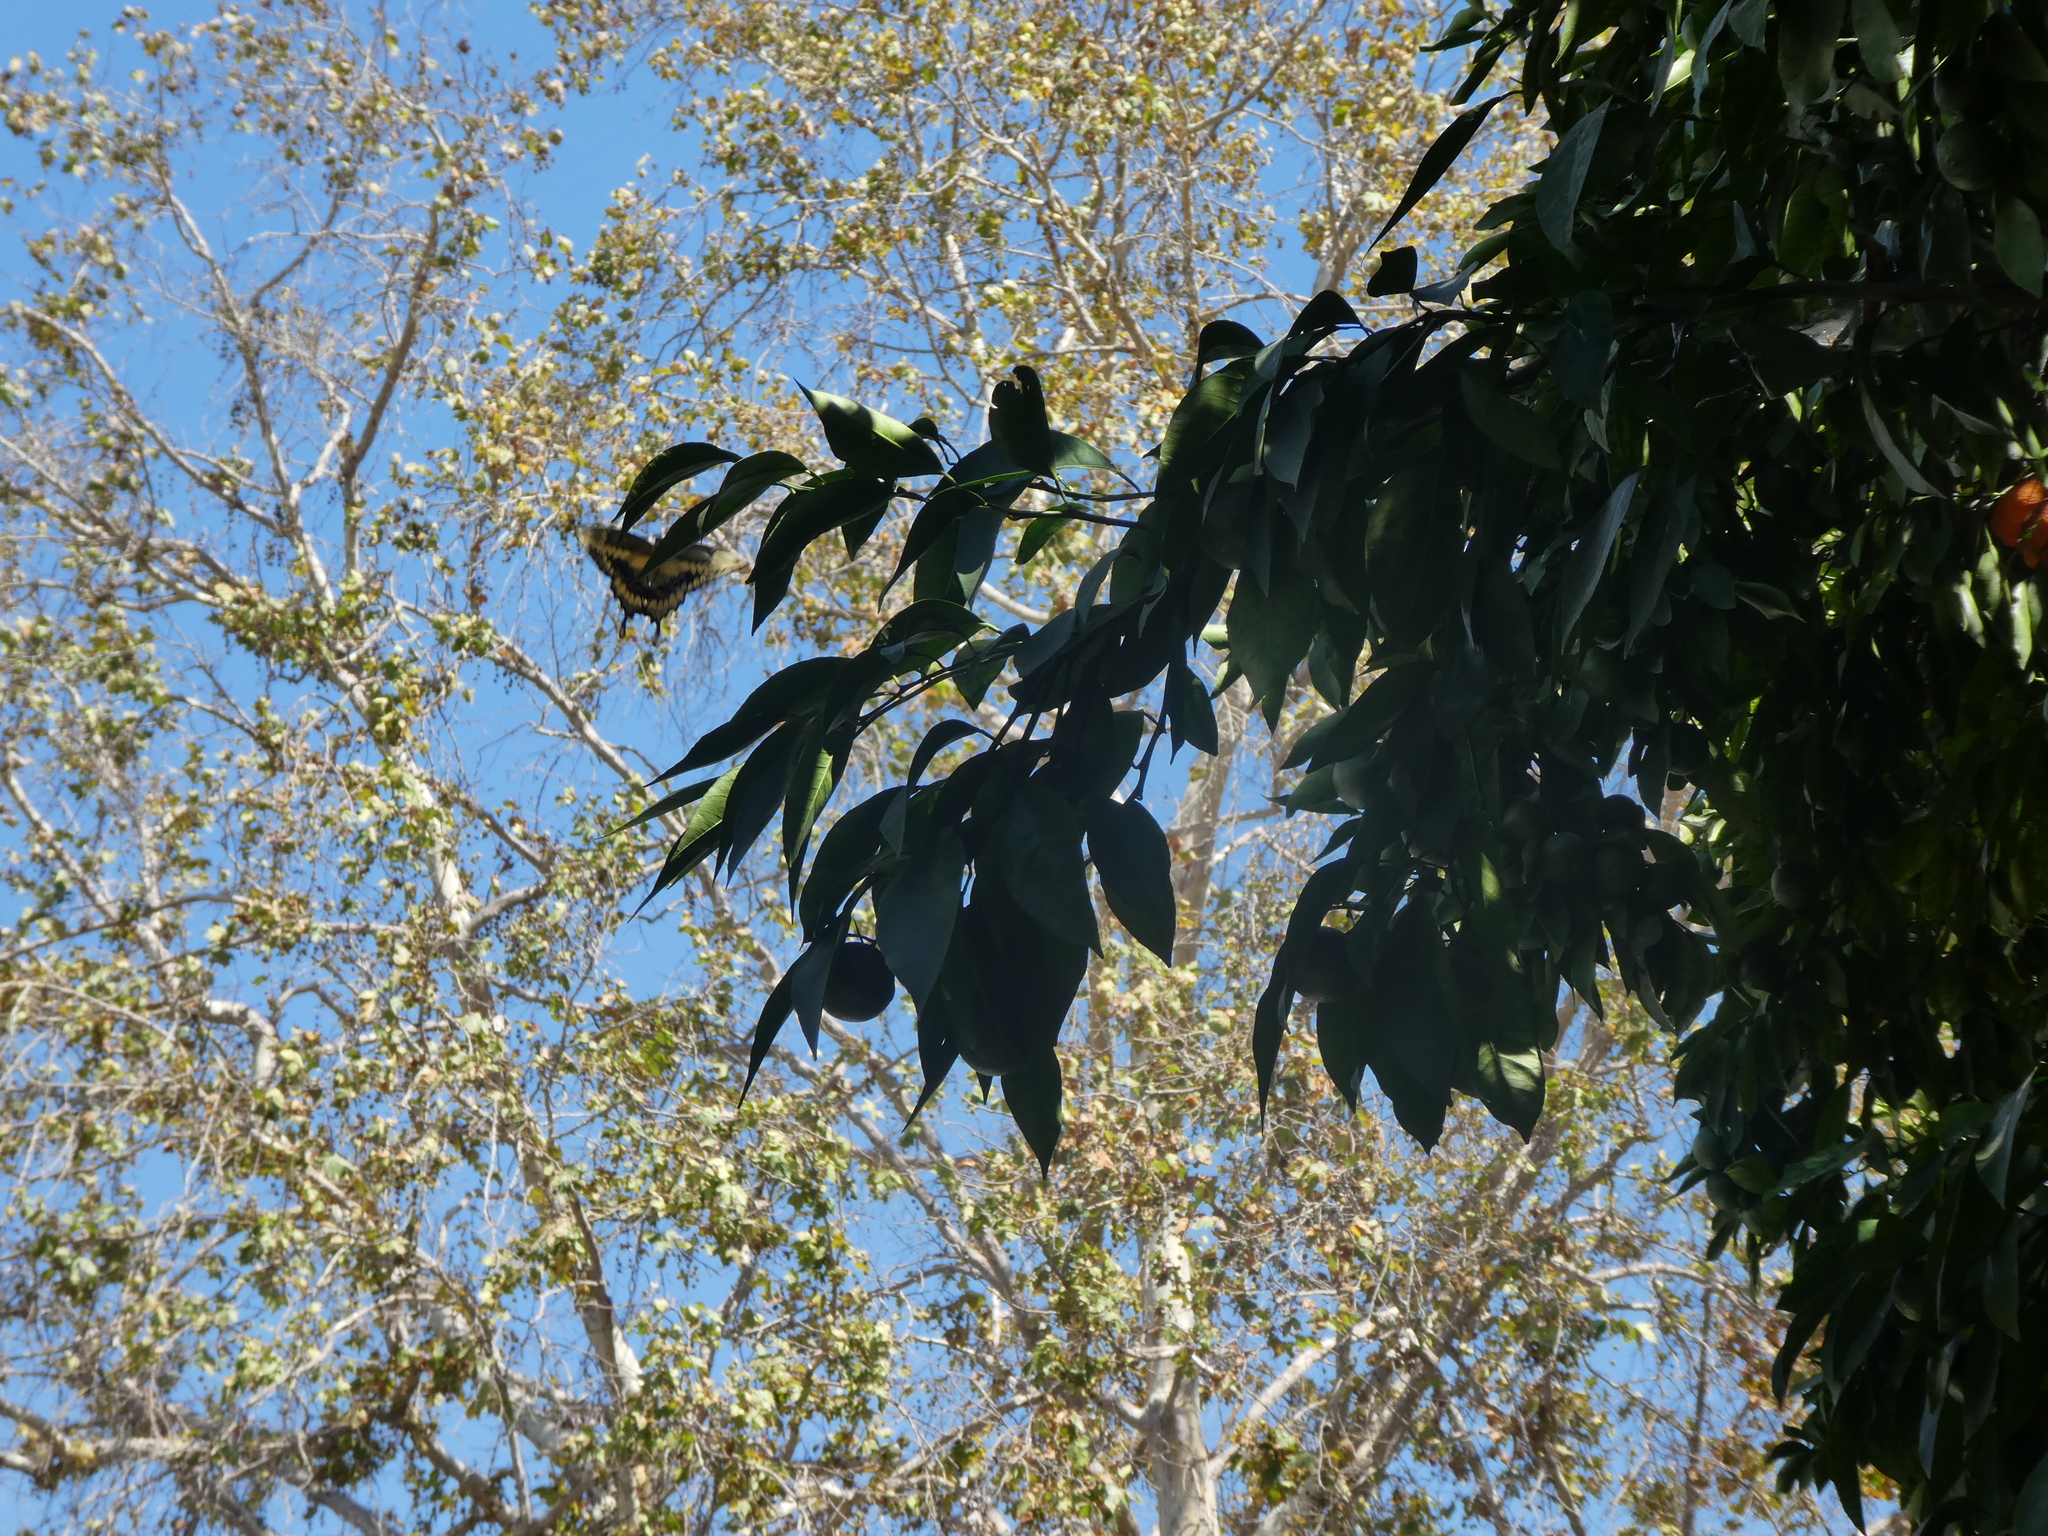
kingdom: Animalia
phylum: Arthropoda
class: Insecta
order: Lepidoptera
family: Papilionidae
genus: Papilio
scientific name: Papilio rumiko
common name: Western giant swallowtail
